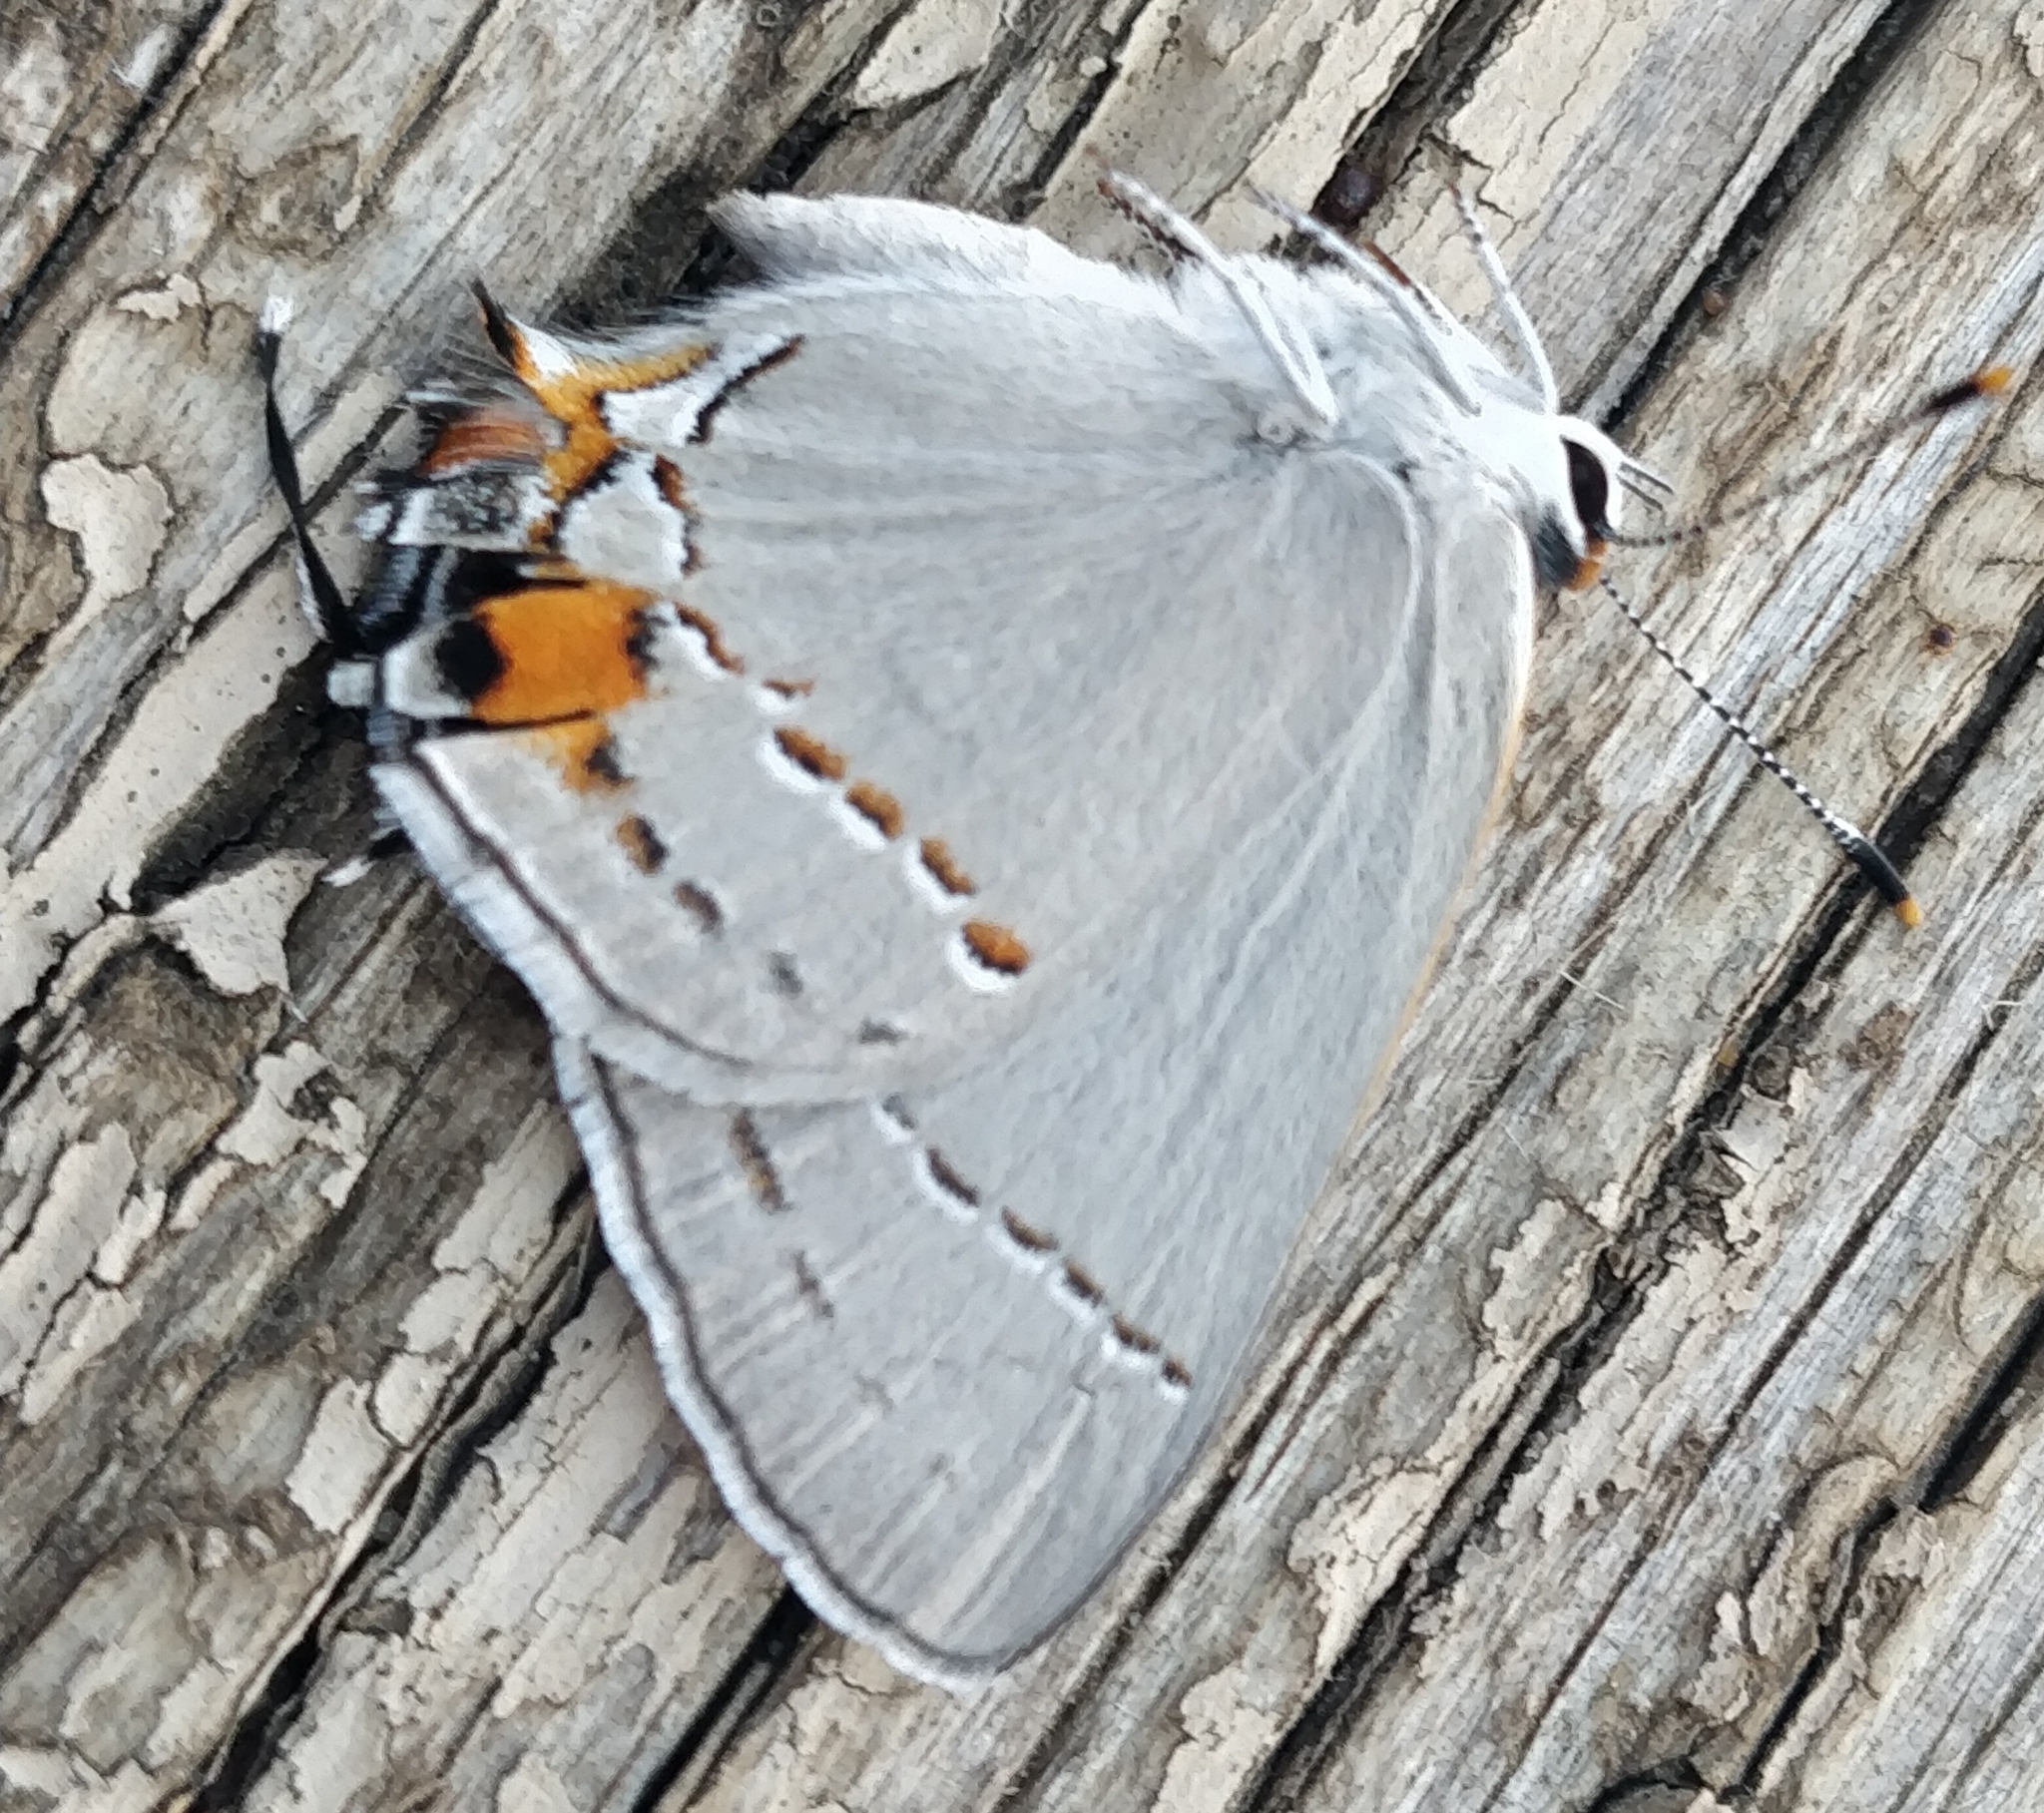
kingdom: Animalia
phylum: Arthropoda
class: Insecta
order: Lepidoptera
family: Lycaenidae
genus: Strymon
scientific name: Strymon melinus
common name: Gray hairstreak
